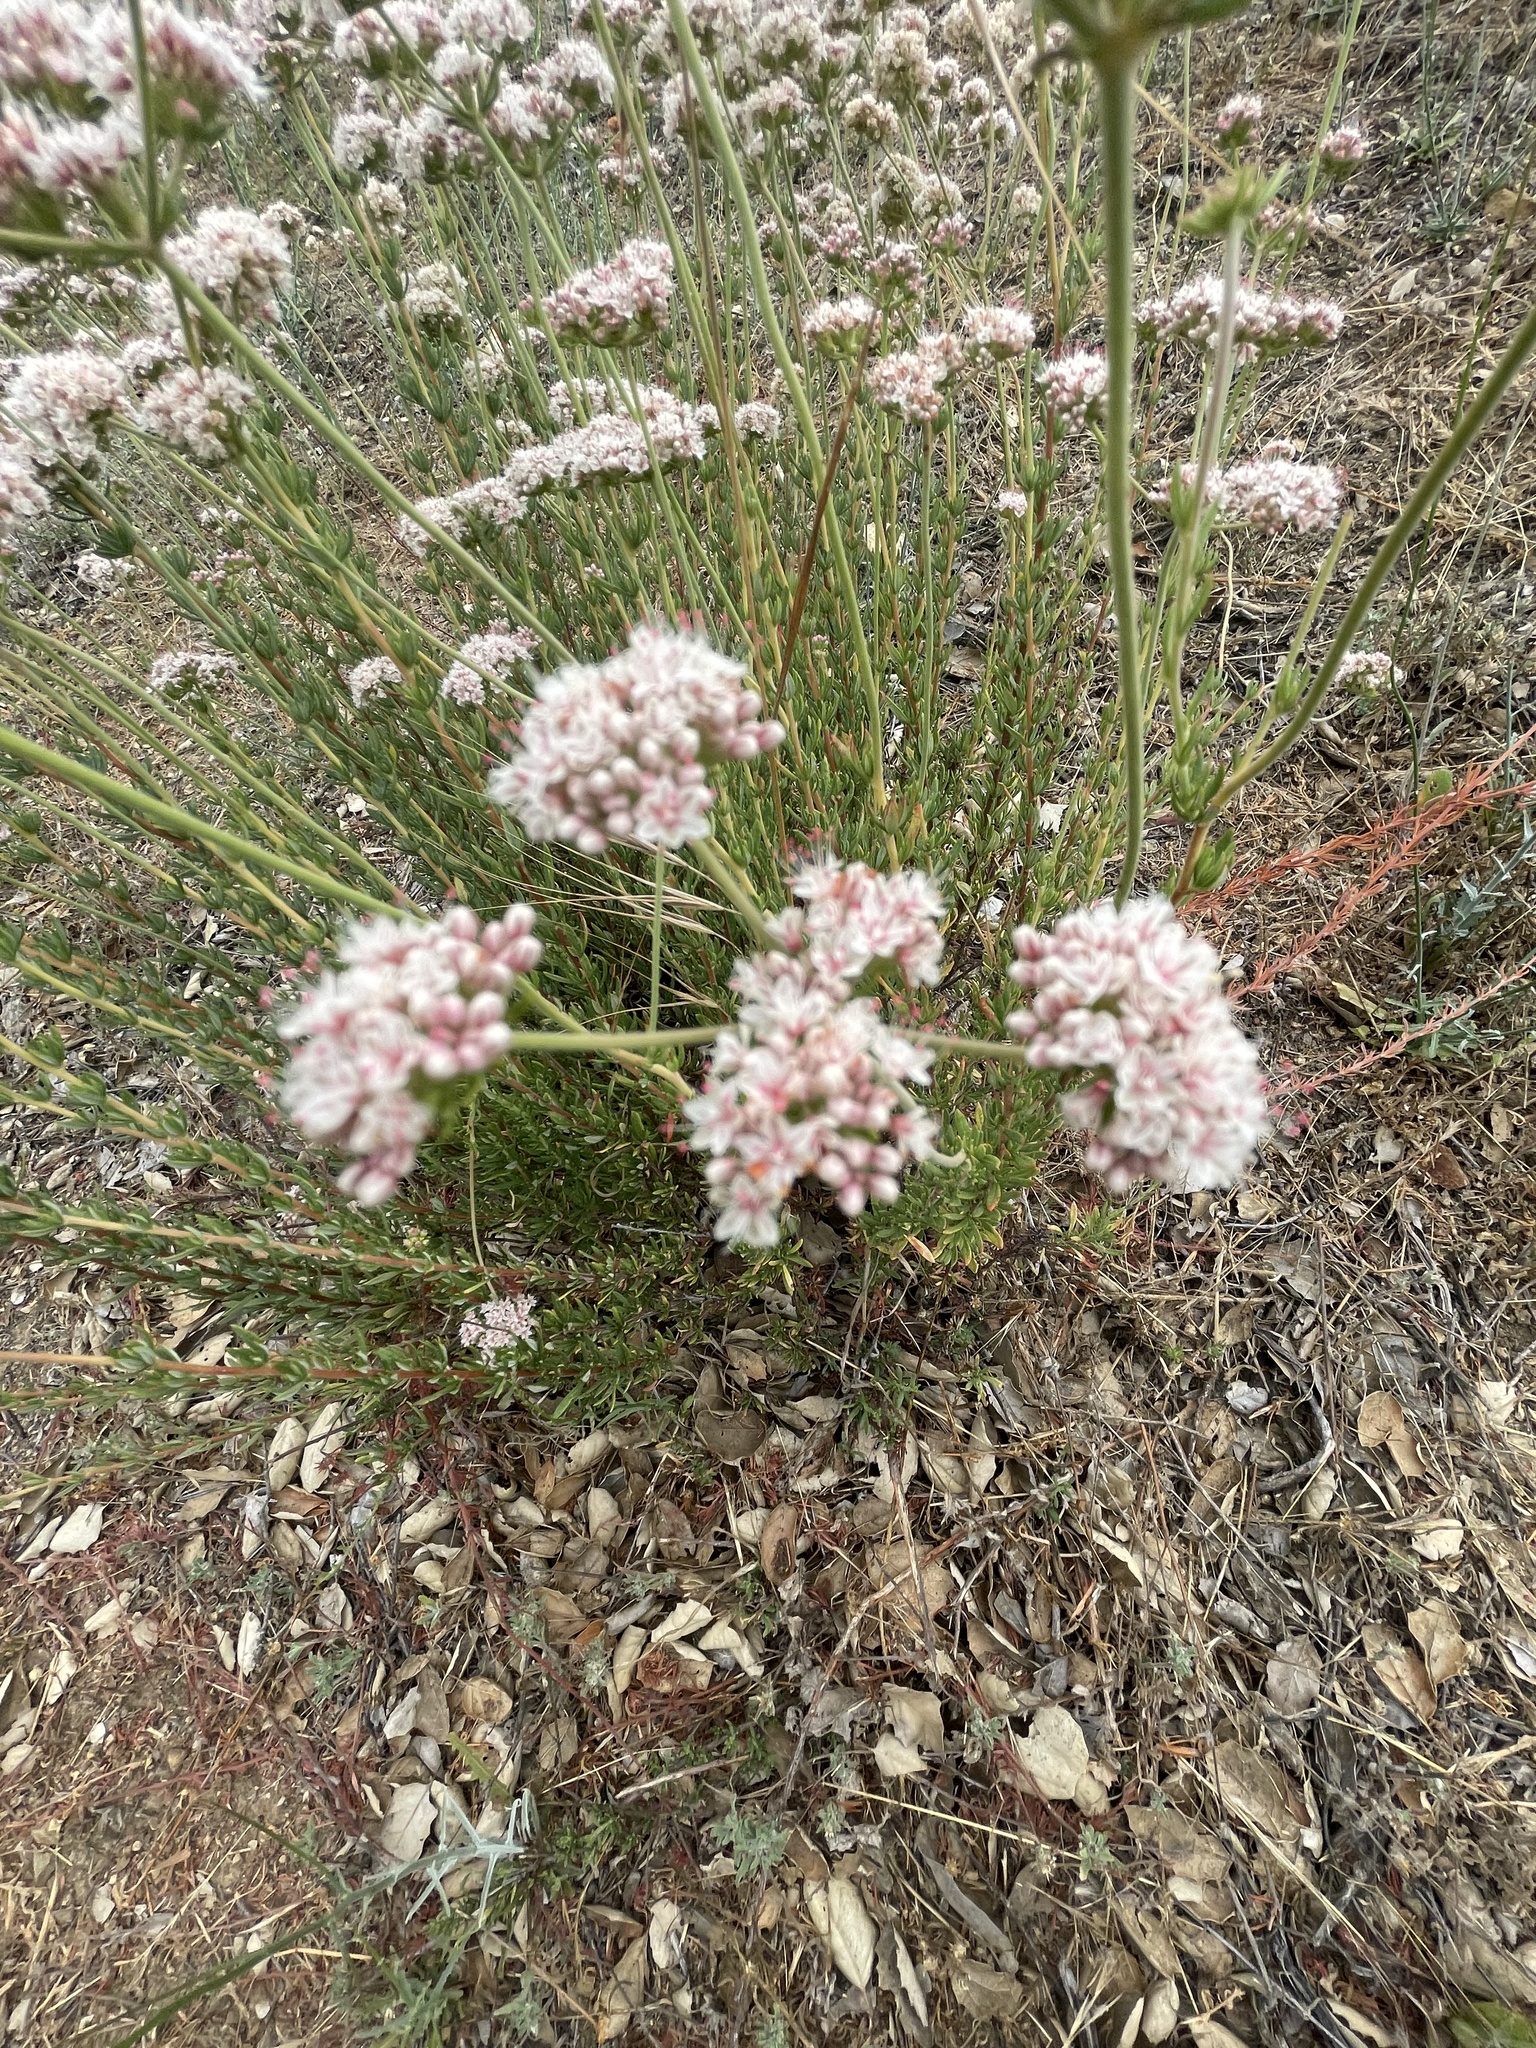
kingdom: Plantae
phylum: Tracheophyta
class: Magnoliopsida
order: Caryophyllales
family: Polygonaceae
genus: Eriogonum
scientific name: Eriogonum fasciculatum
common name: California wild buckwheat
